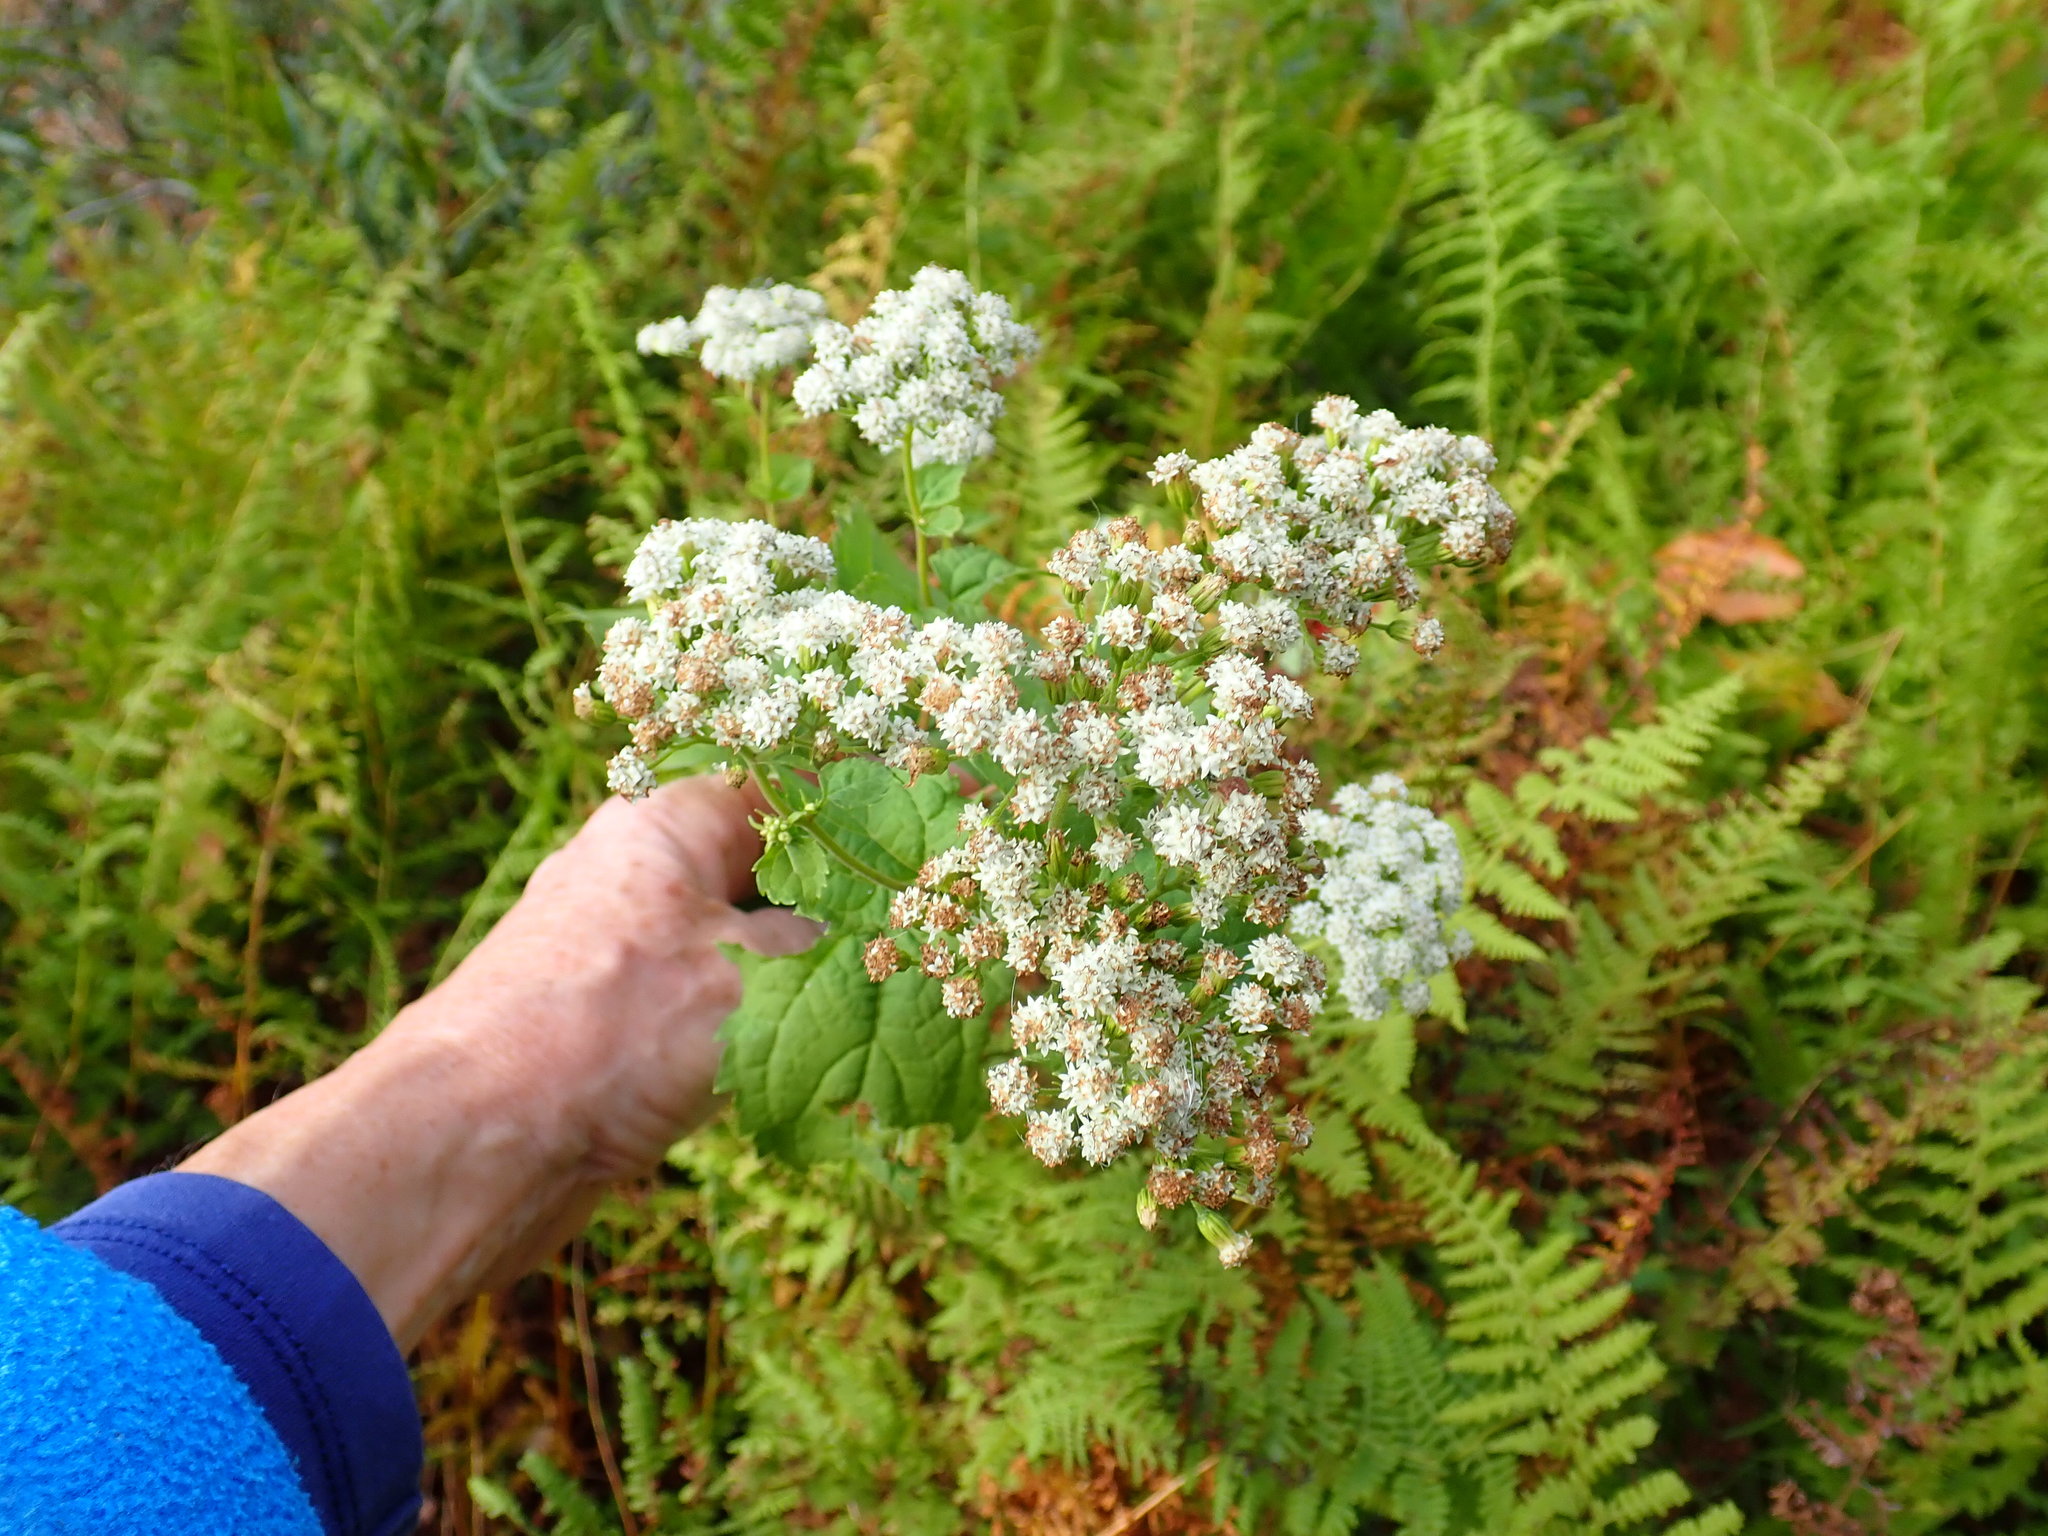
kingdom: Plantae
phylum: Tracheophyta
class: Magnoliopsida
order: Asterales
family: Asteraceae
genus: Ageratina
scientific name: Ageratina altissima
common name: White snakeroot
